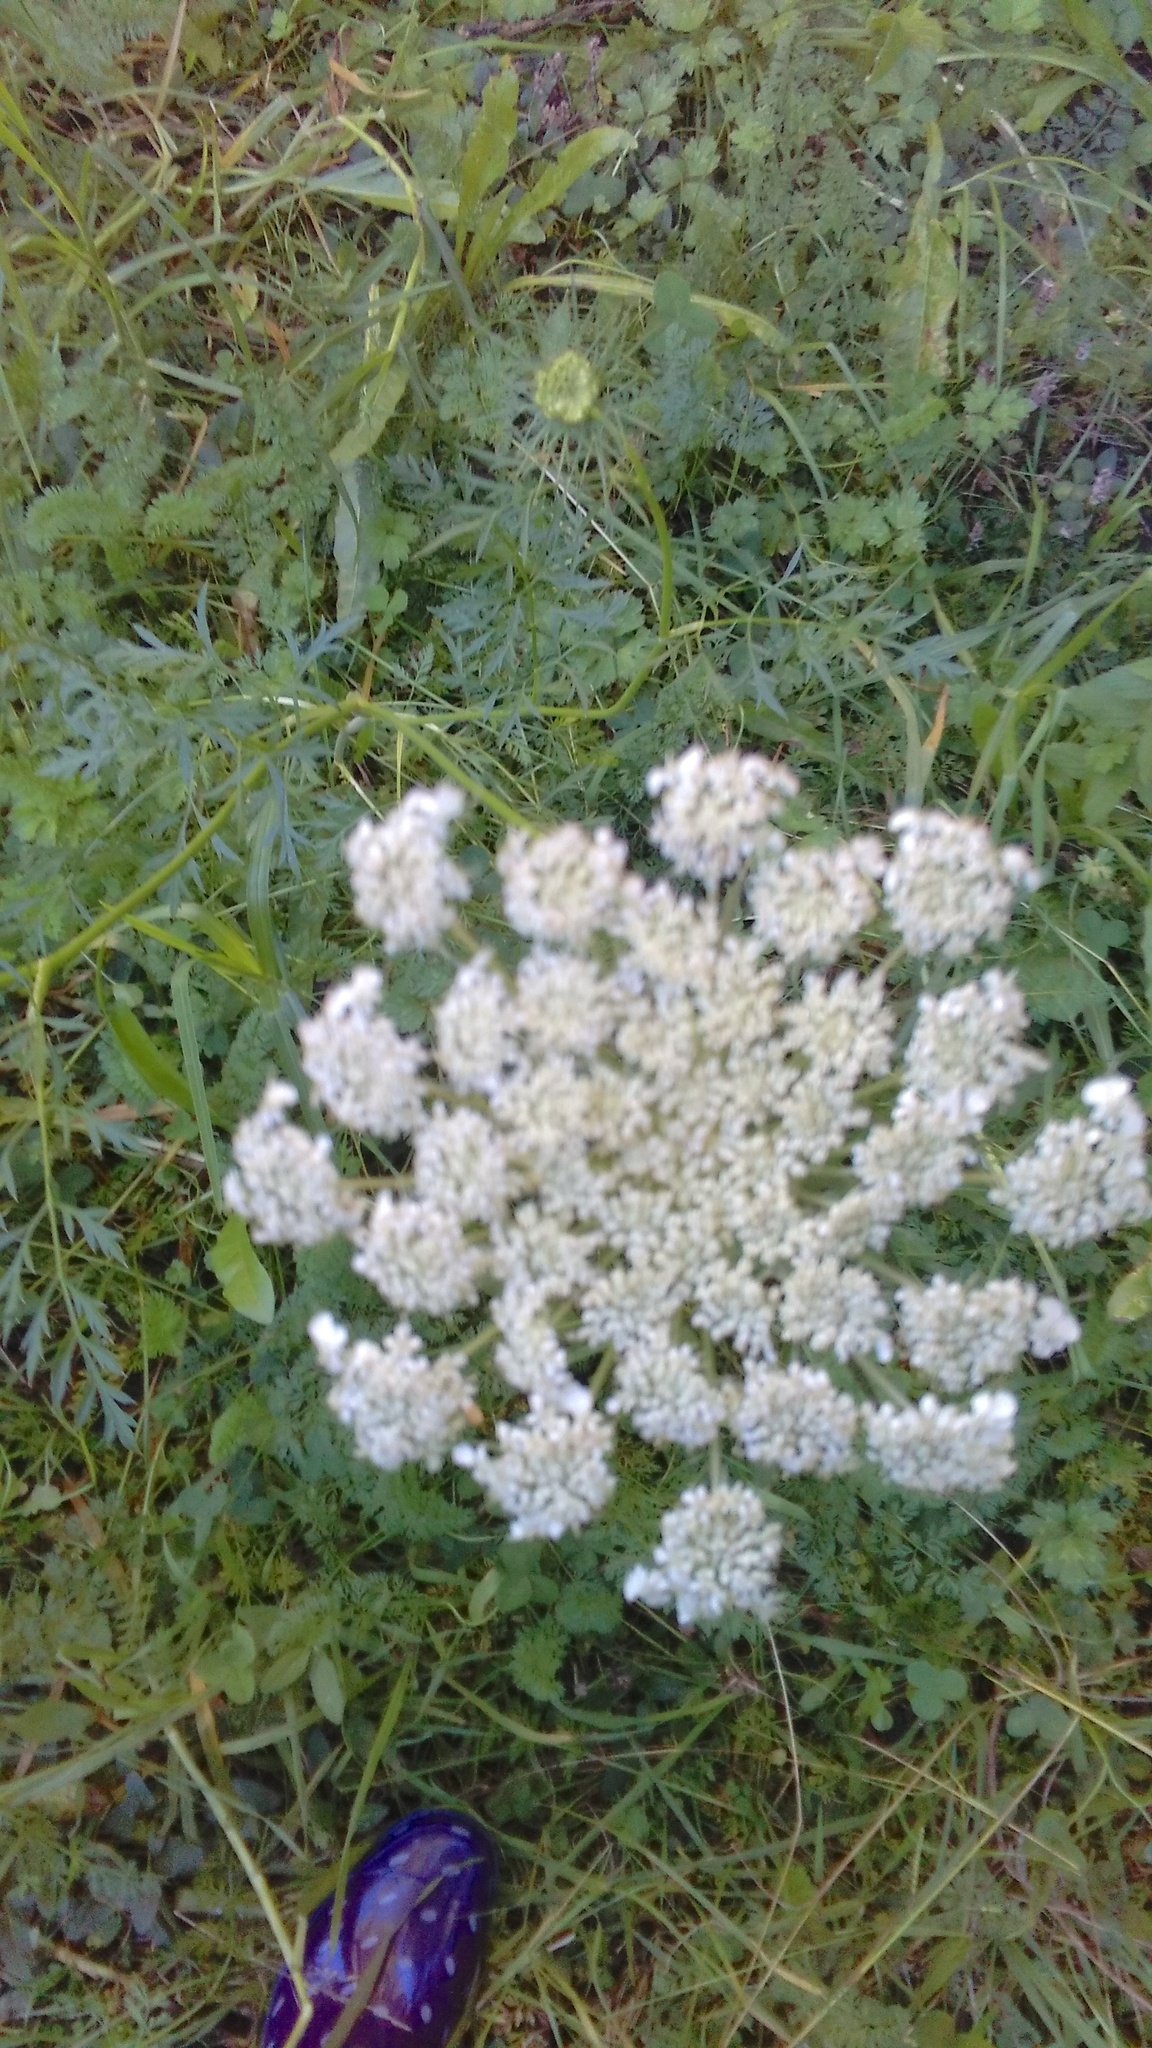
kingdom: Plantae
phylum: Tracheophyta
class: Magnoliopsida
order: Apiales
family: Apiaceae
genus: Daucus
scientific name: Daucus carota
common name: Wild carrot
